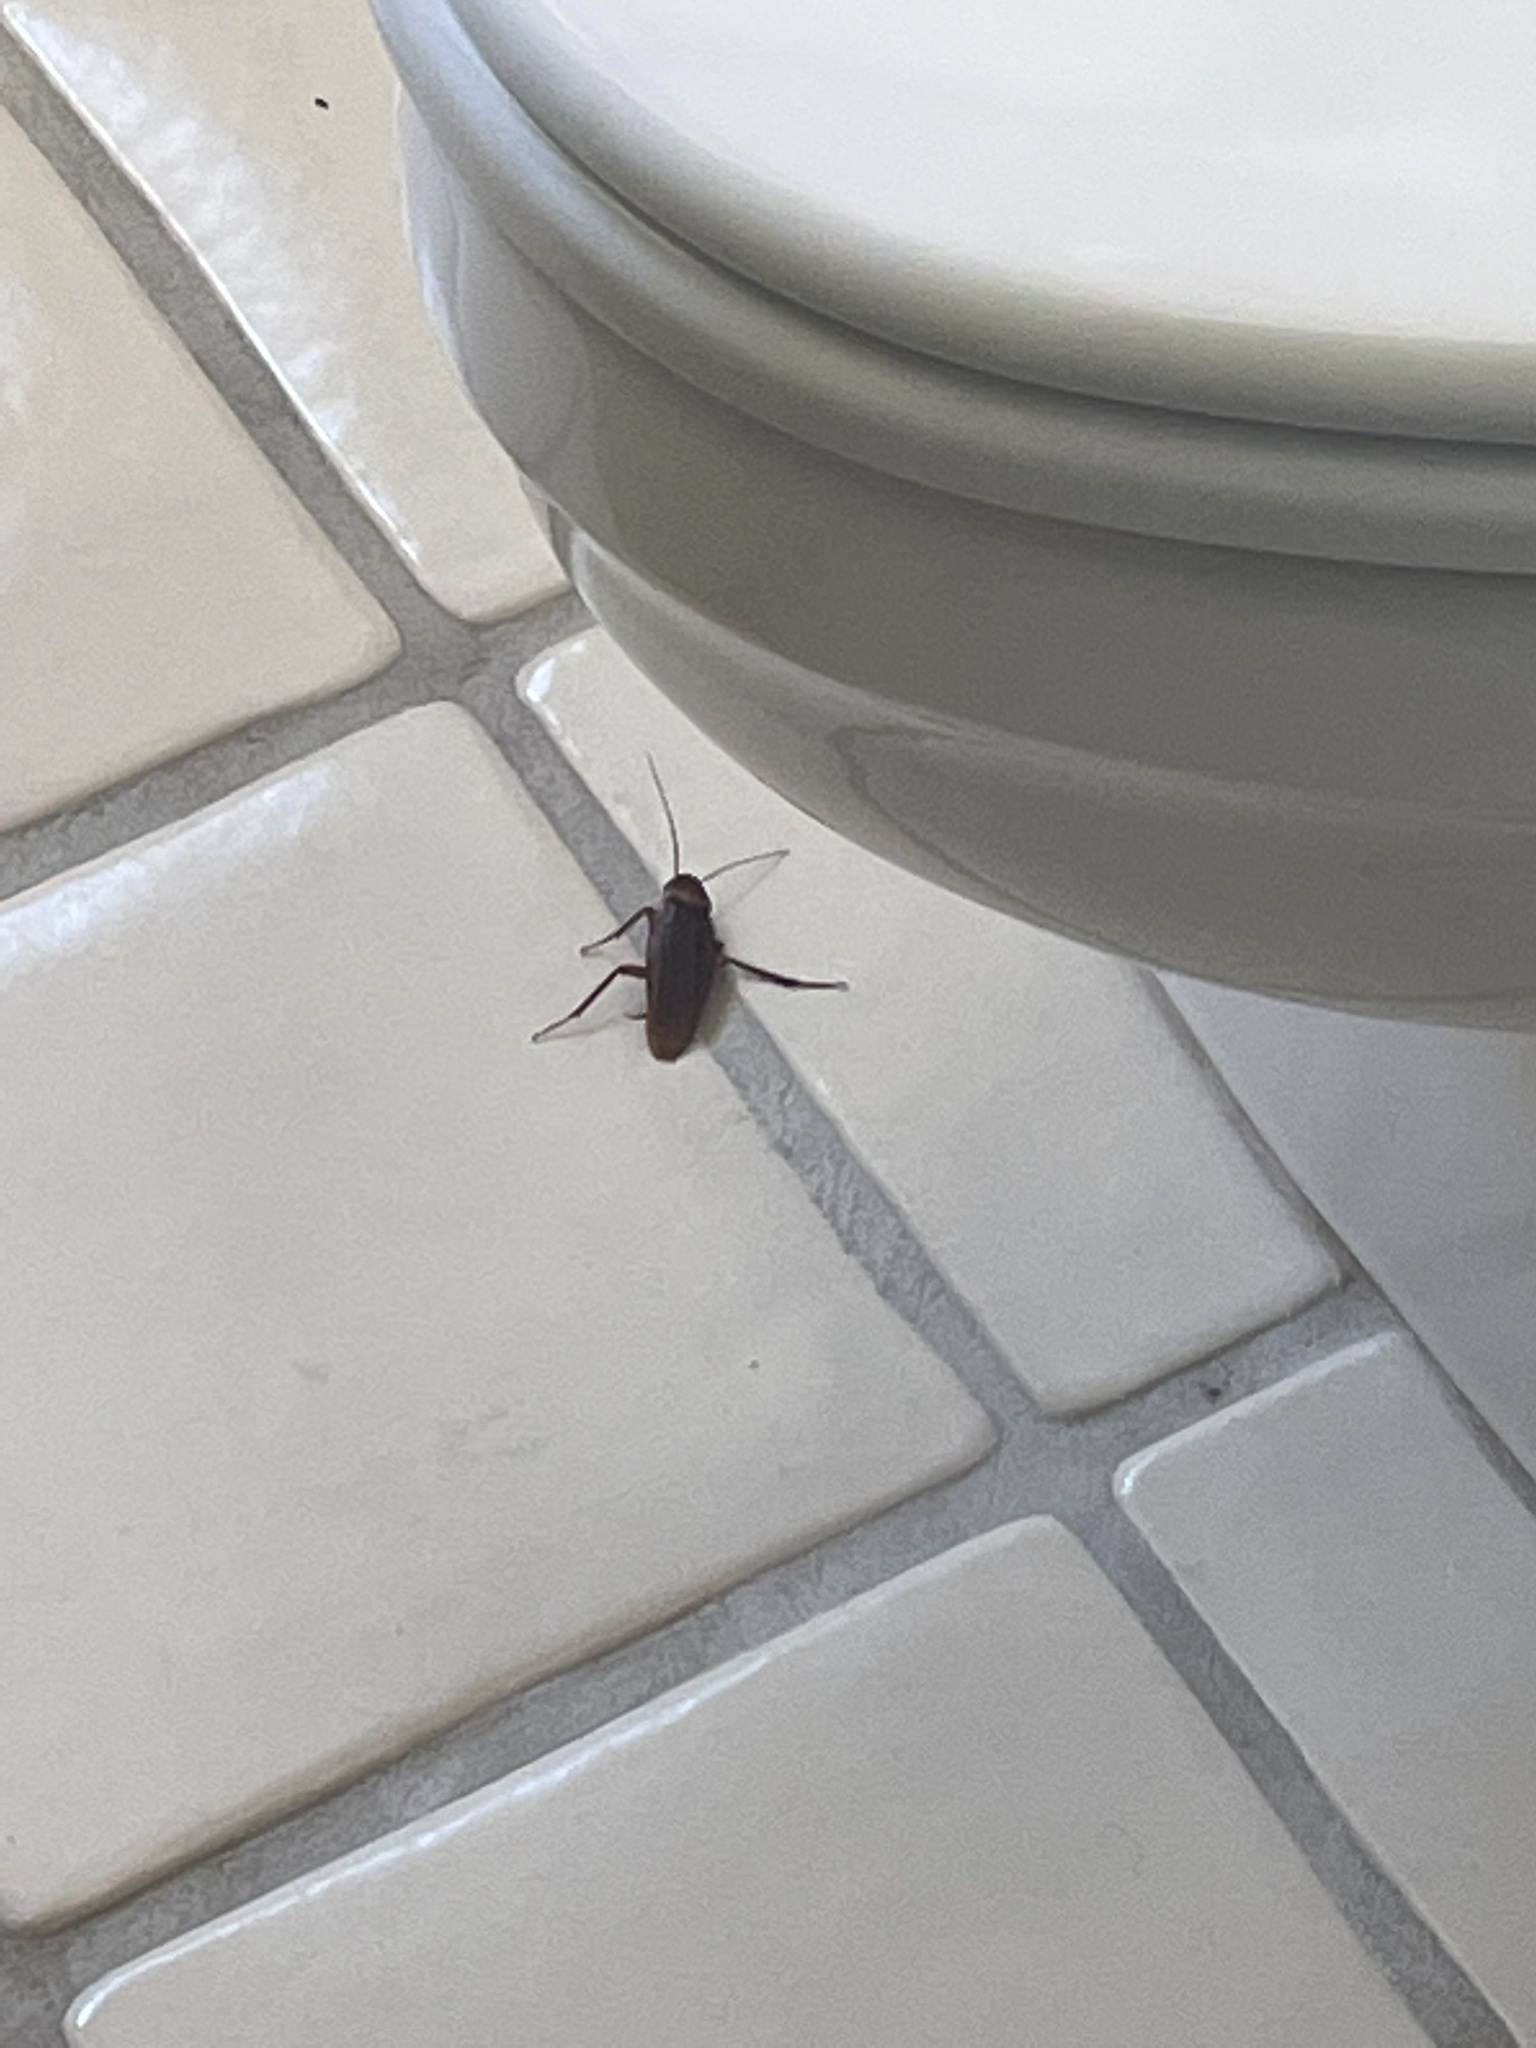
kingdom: Animalia
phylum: Arthropoda
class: Insecta
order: Blattodea
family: Blattidae
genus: Periplaneta
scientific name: Periplaneta americana
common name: American cockroach
